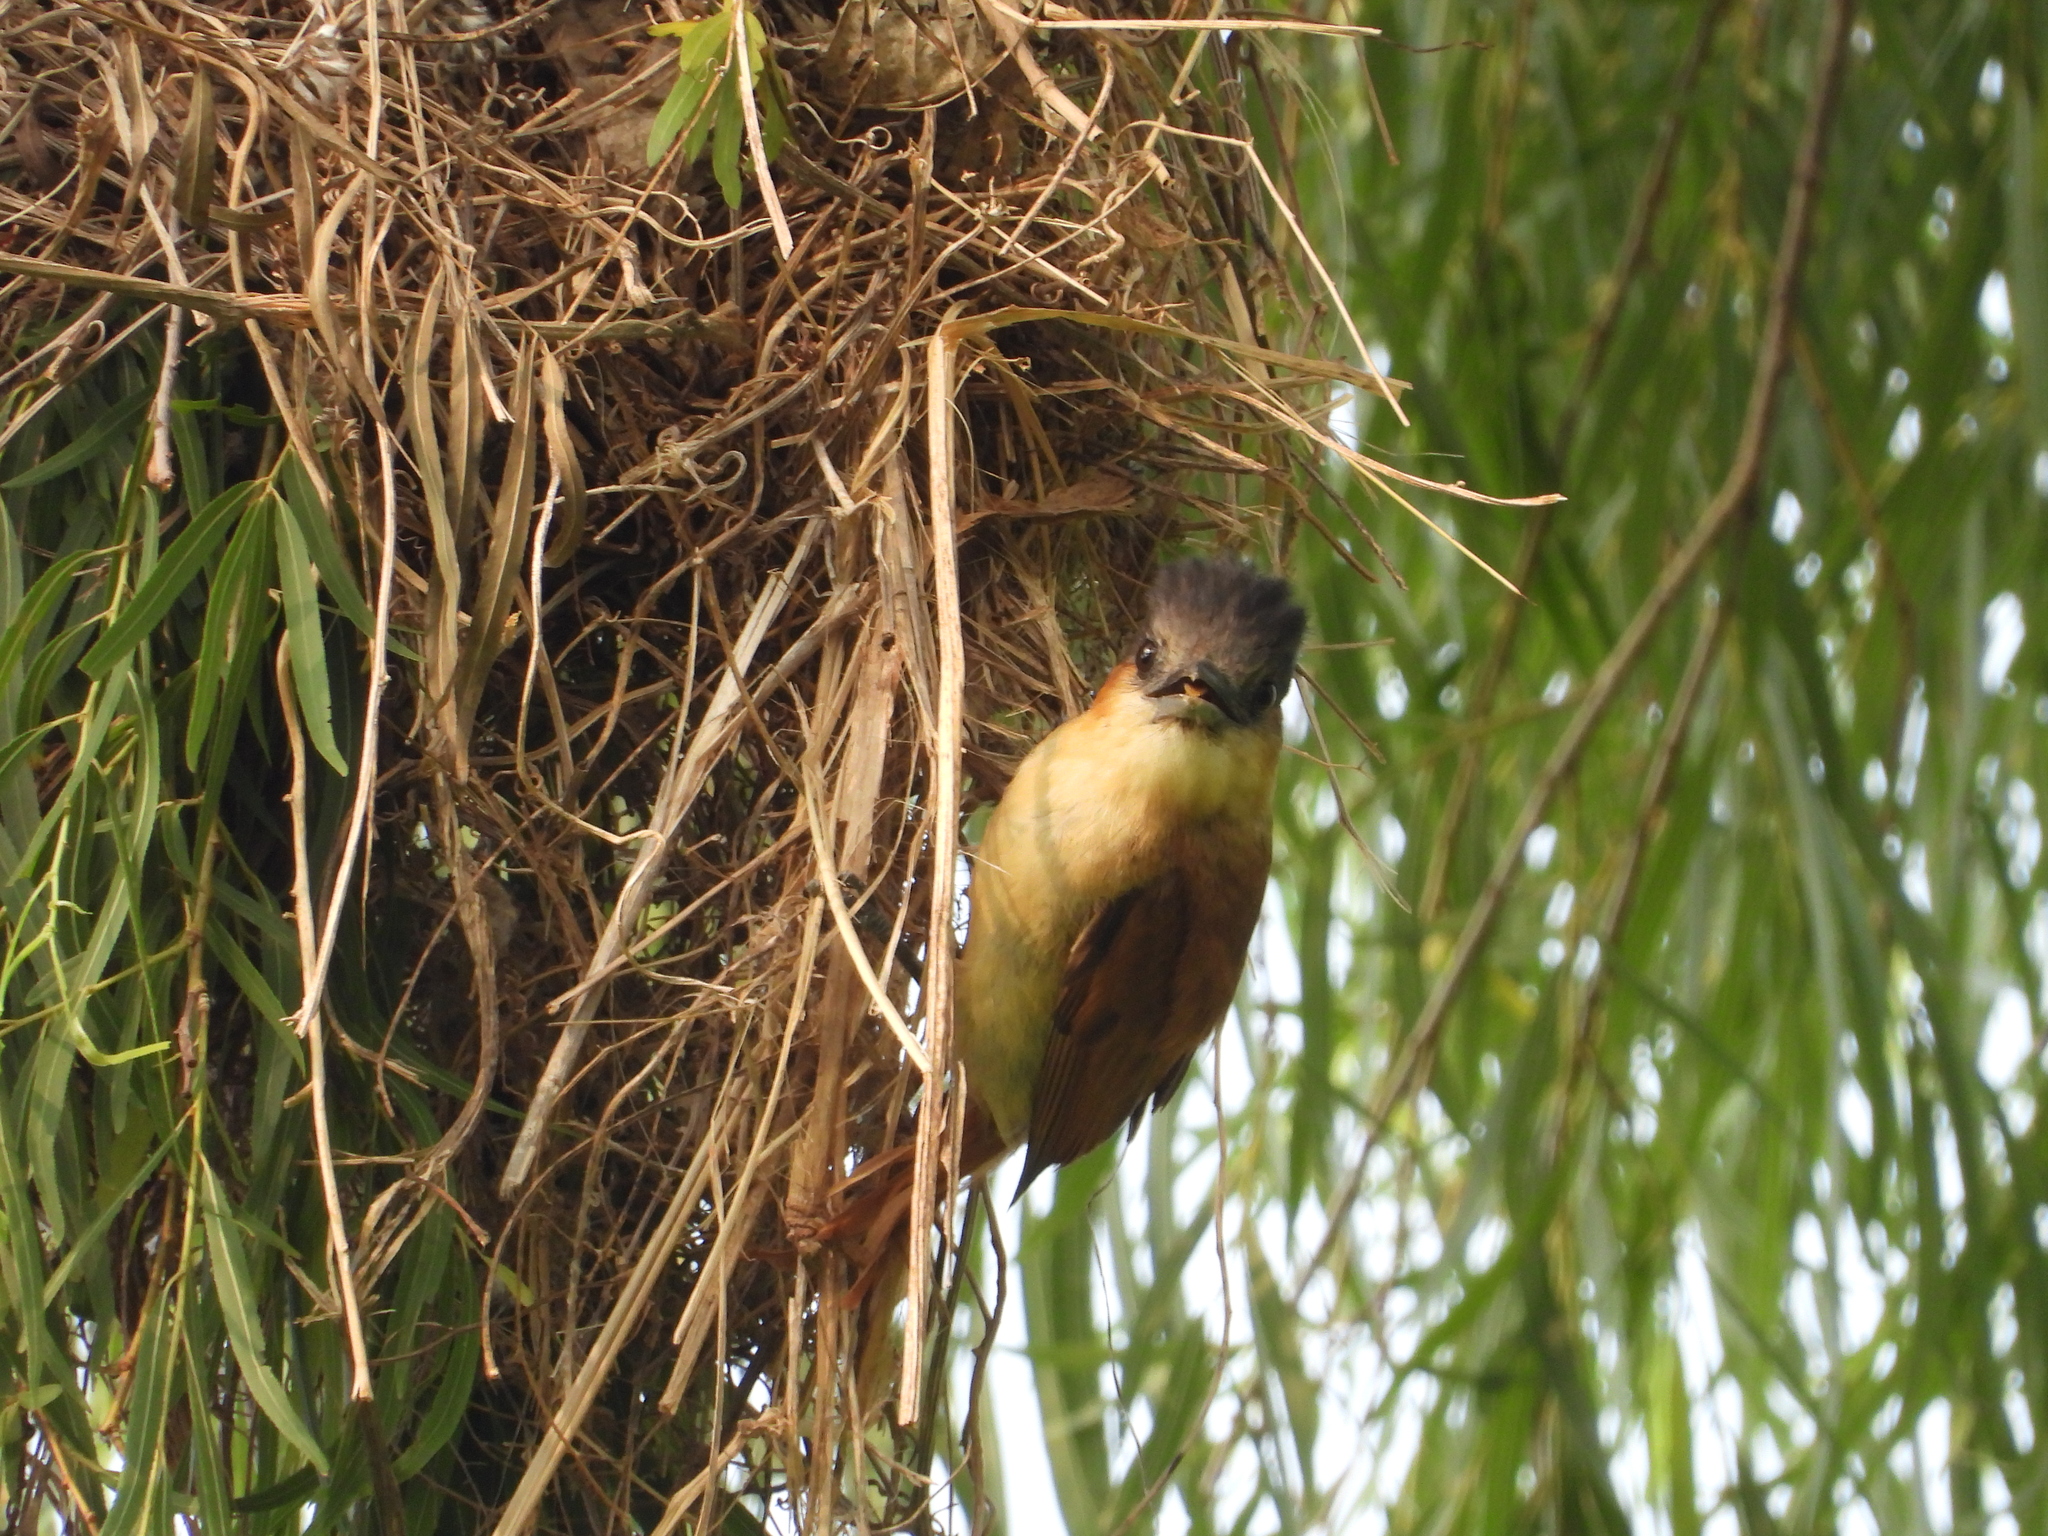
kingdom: Animalia
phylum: Chordata
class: Aves
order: Passeriformes
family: Cotingidae
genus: Pachyramphus
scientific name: Pachyramphus aglaiae
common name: Rose-throated becard
